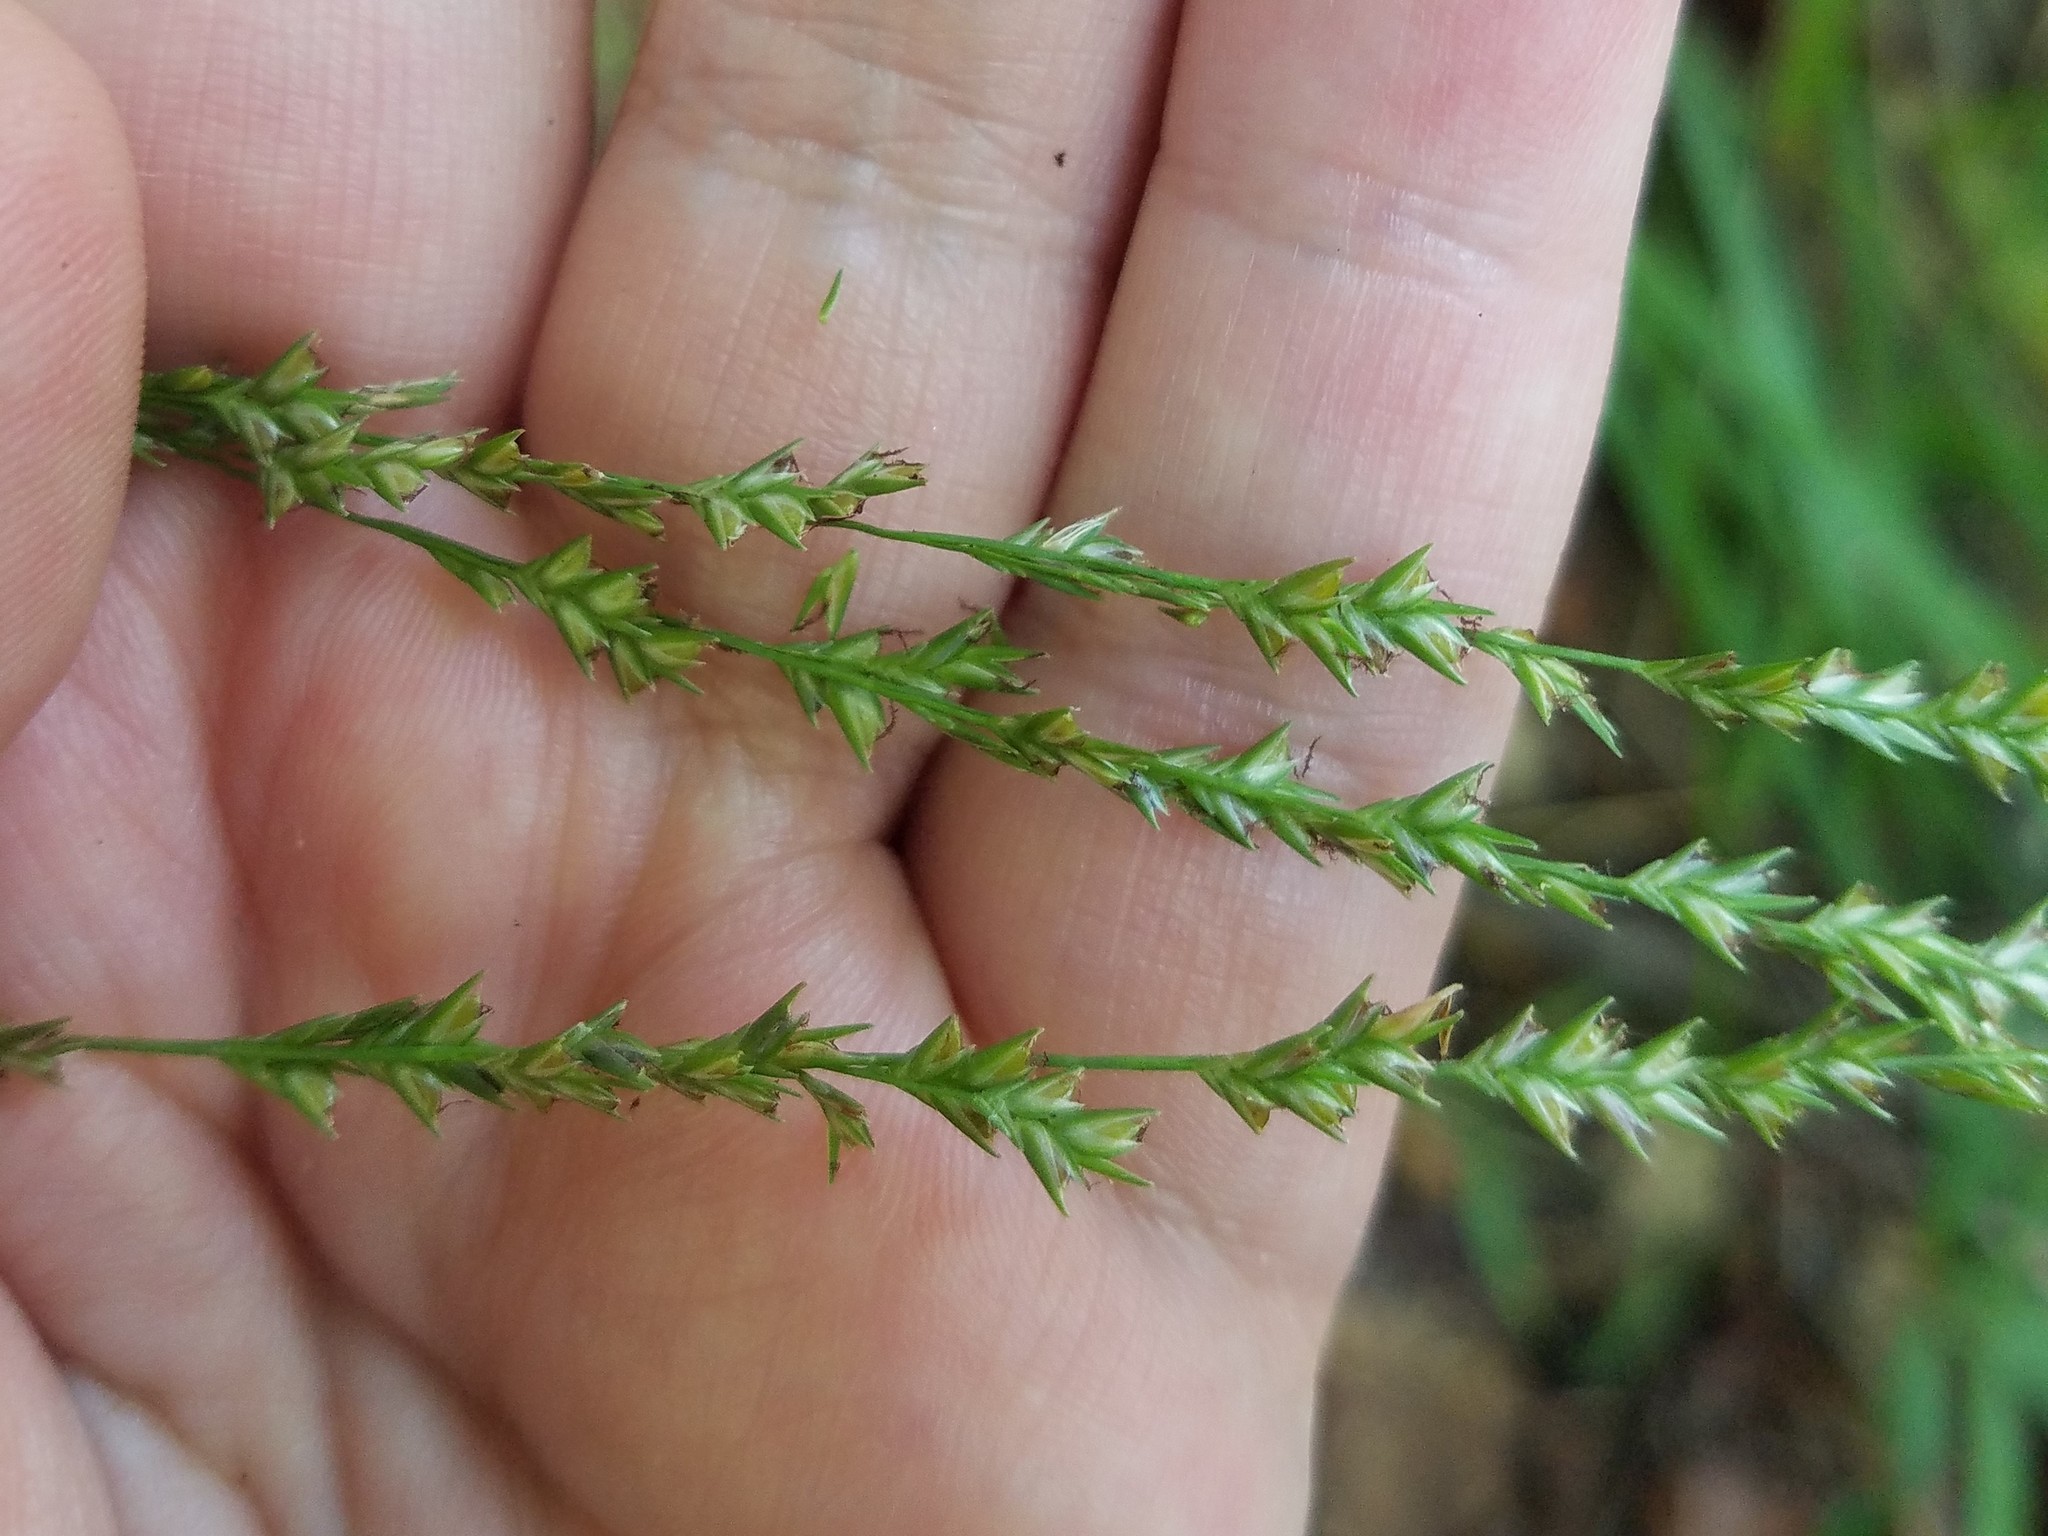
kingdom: Plantae
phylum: Tracheophyta
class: Liliopsida
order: Poales
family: Poaceae
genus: Chasmanthium
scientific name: Chasmanthium laxum
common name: Slender chasmanthium
